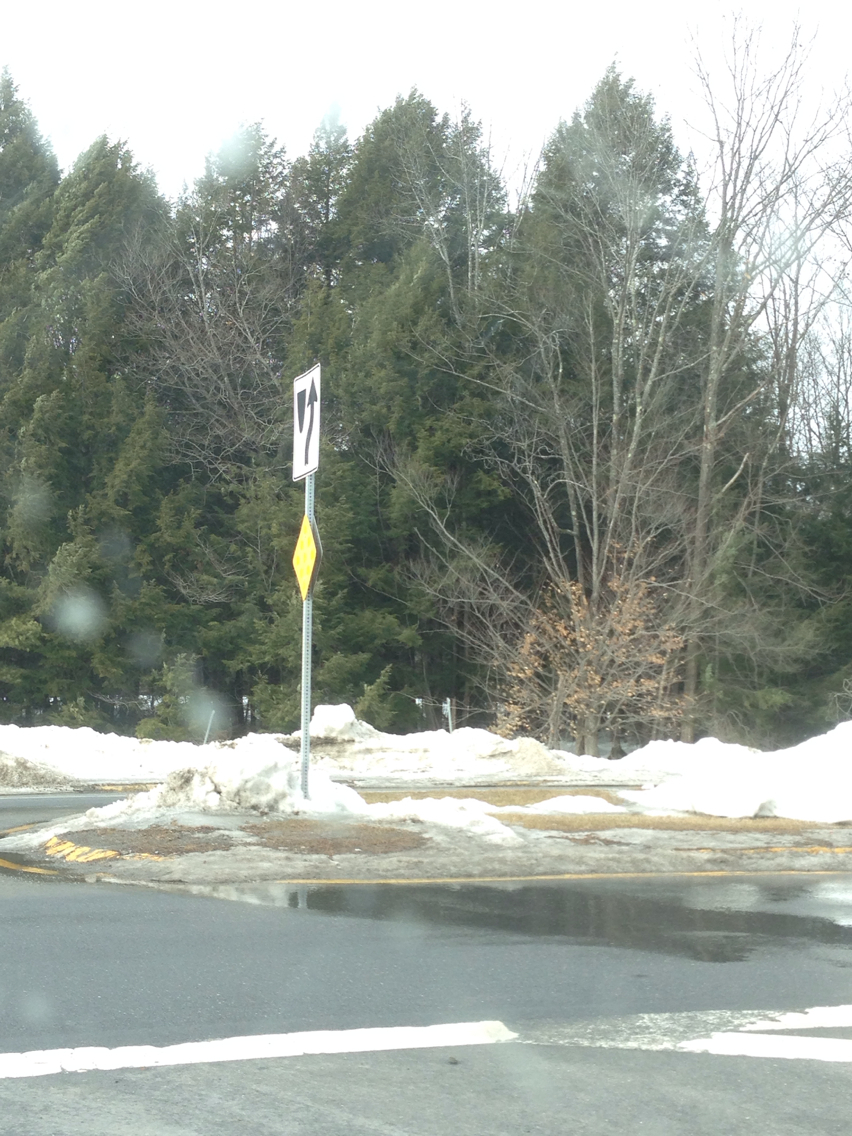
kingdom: Plantae
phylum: Tracheophyta
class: Pinopsida
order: Pinales
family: Pinaceae
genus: Tsuga
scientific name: Tsuga canadensis
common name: Eastern hemlock
